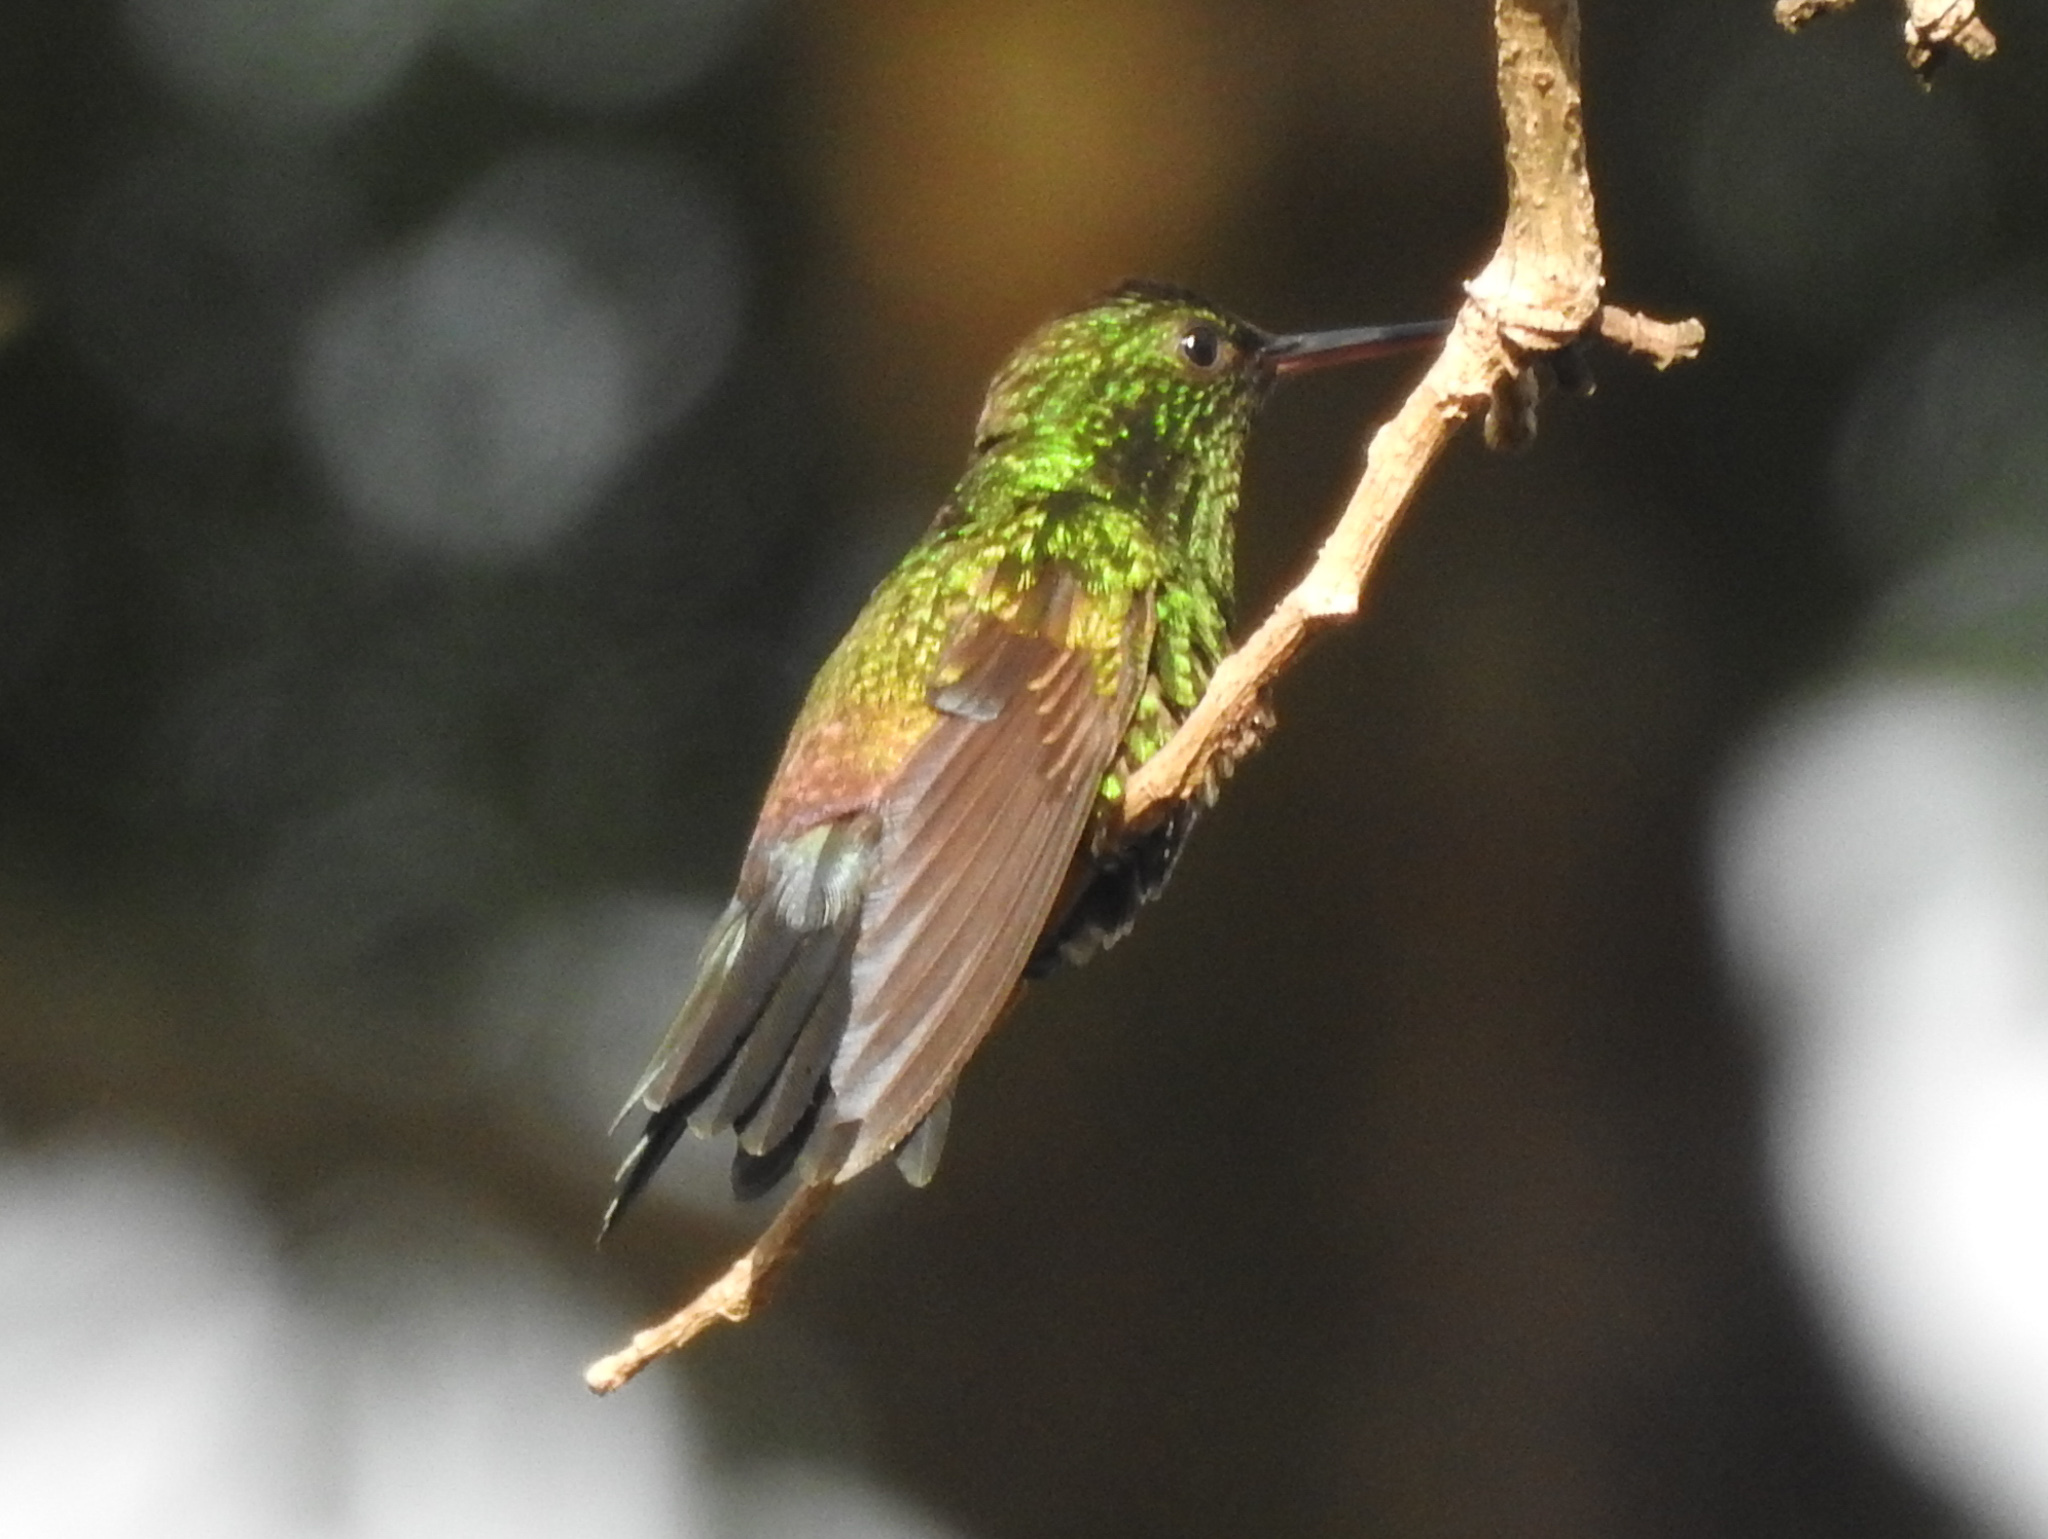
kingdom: Animalia
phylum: Chordata
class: Aves
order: Apodiformes
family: Trochilidae
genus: Saucerottia
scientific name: Saucerottia hoffmanni
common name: Blue-vented hummingbird
